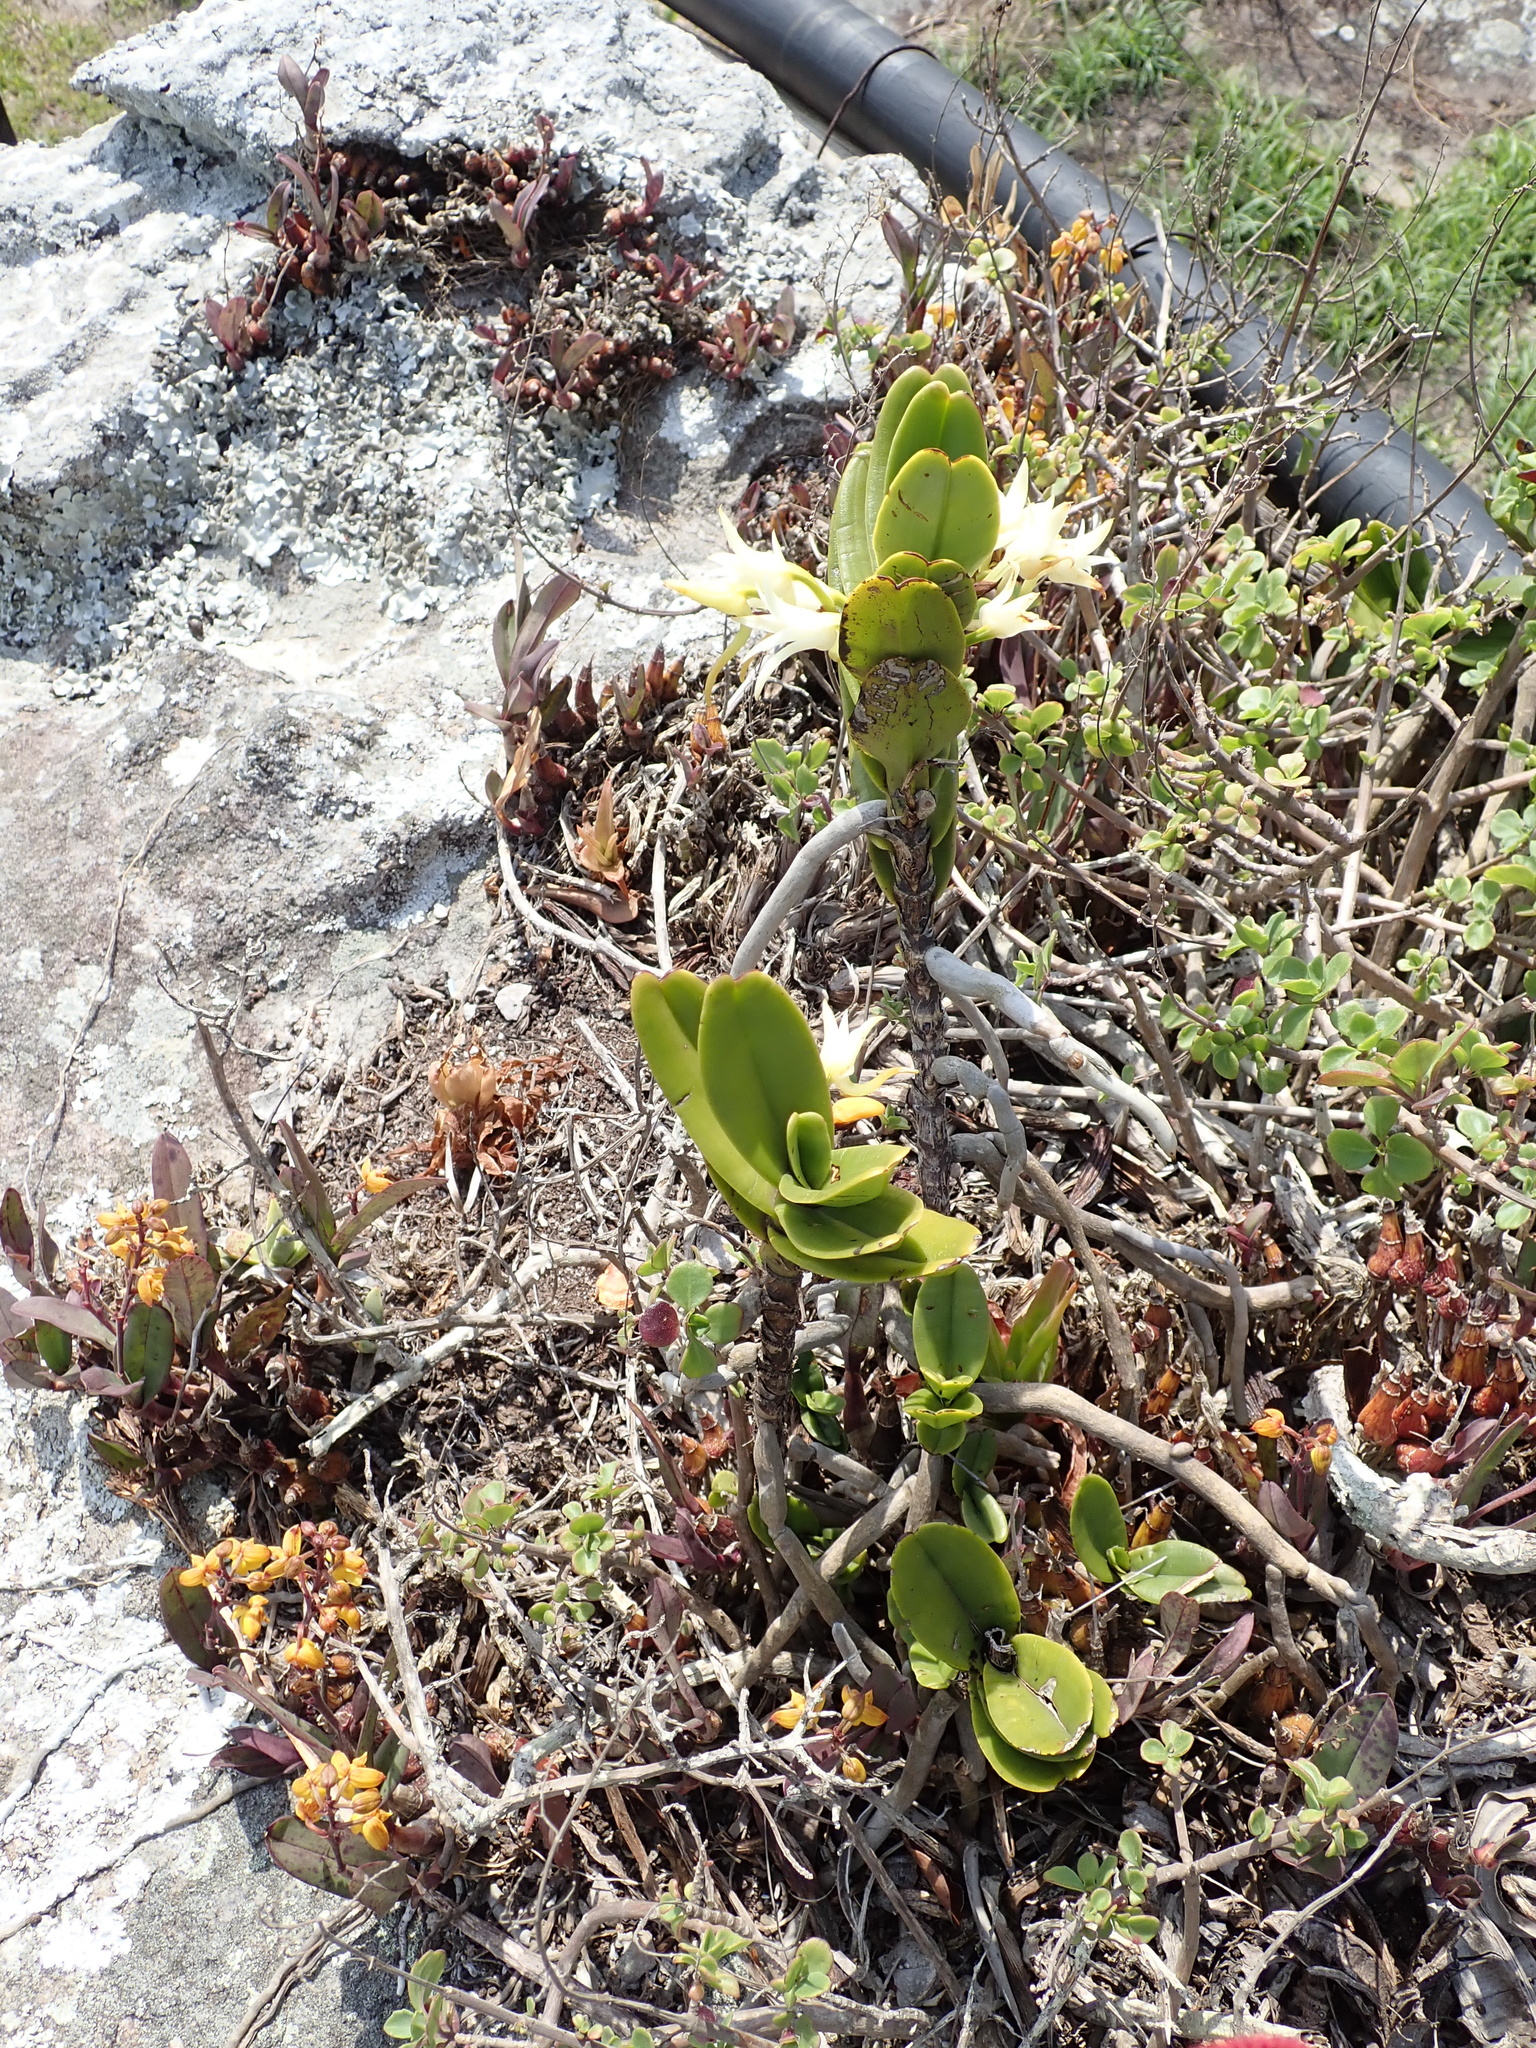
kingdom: Plantae
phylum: Tracheophyta
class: Liliopsida
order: Asparagales
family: Orchidaceae
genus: Cyrtorchis
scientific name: Cyrtorchis arcuata
